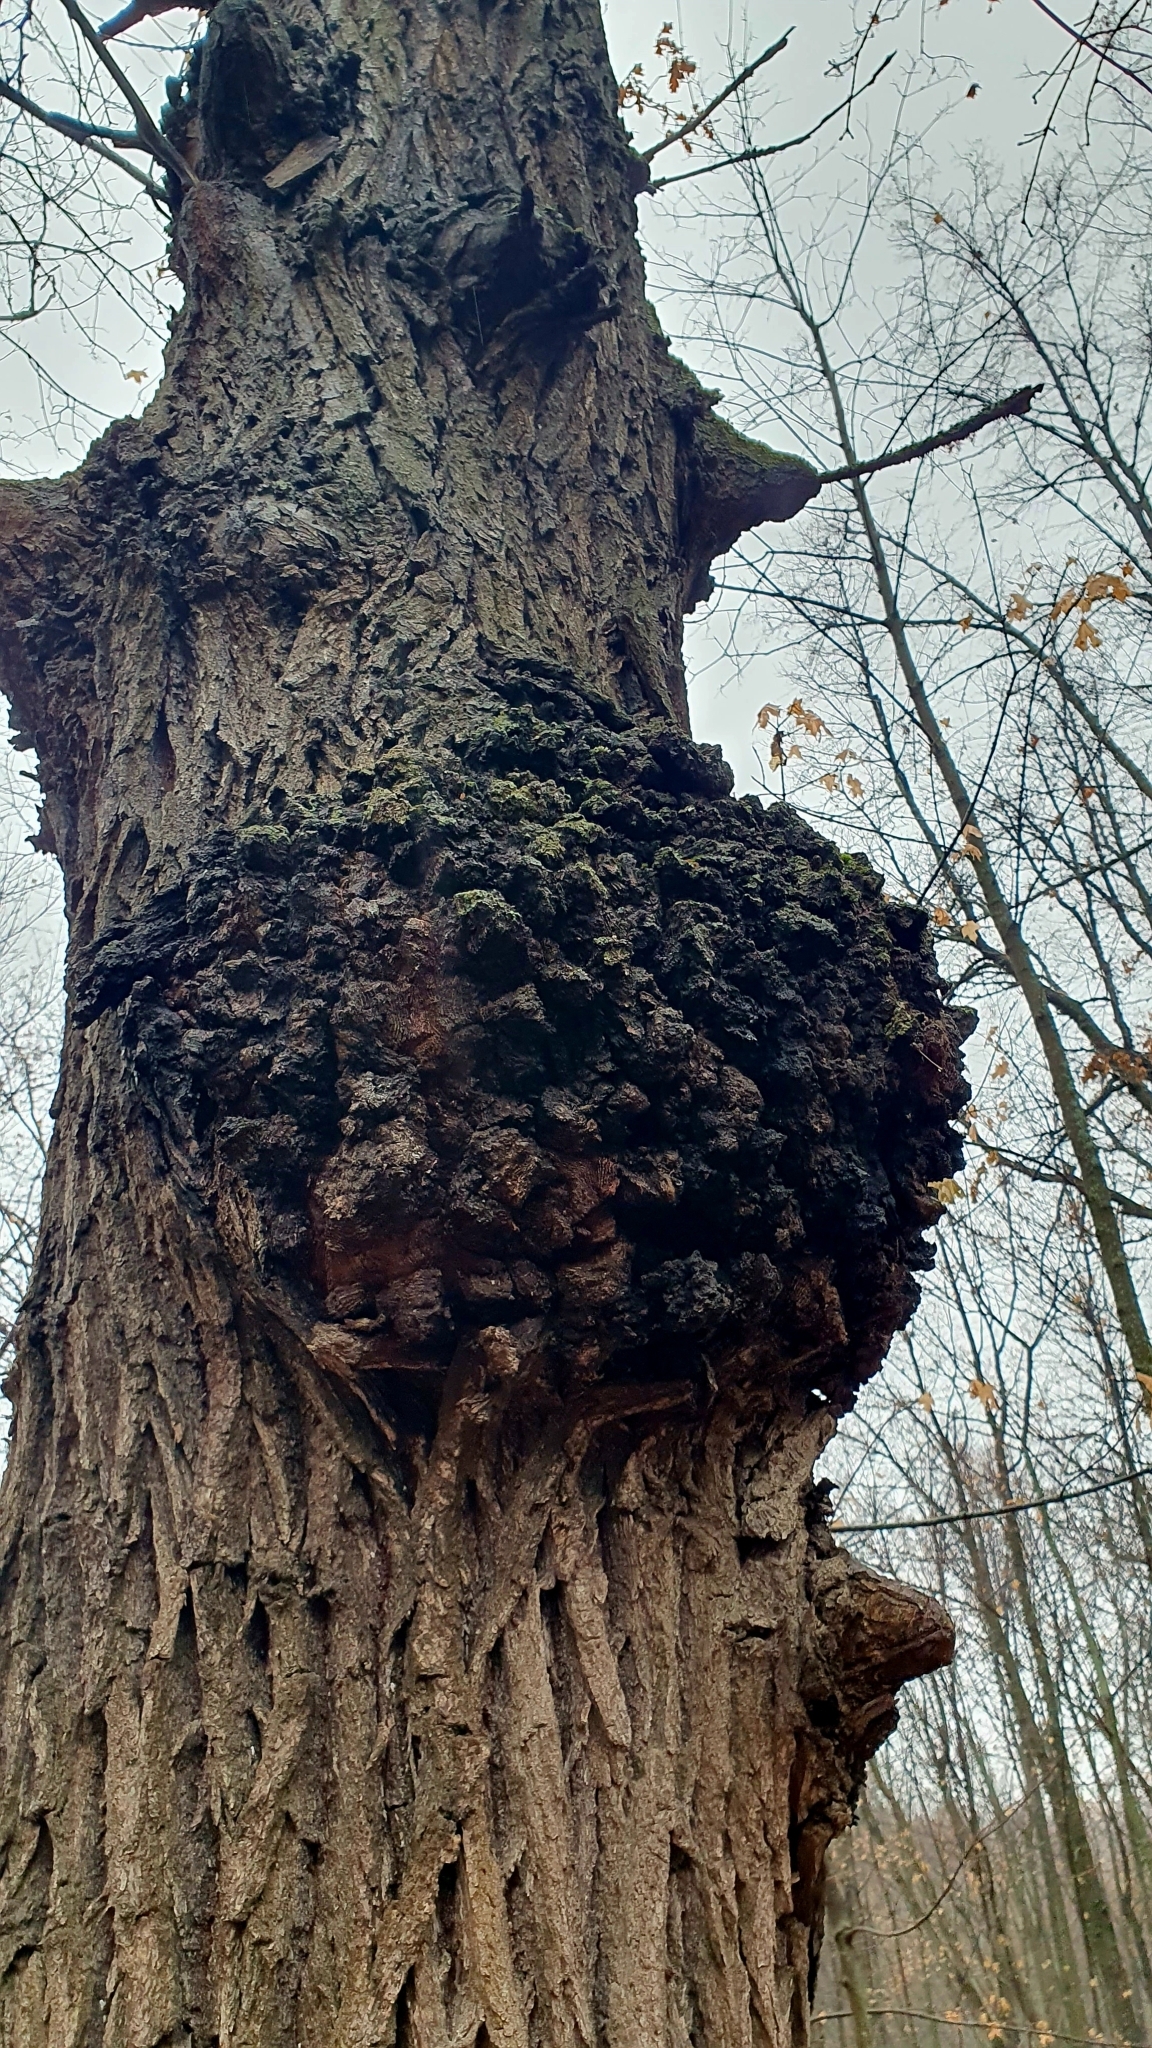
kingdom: Bacteria
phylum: Proteobacteria
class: Alphaproteobacteria
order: Rhizobiales
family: Rhizobiaceae
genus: Rhizobium
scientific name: Rhizobium Agrobacterium radiobacter
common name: Bacterial crown gall
